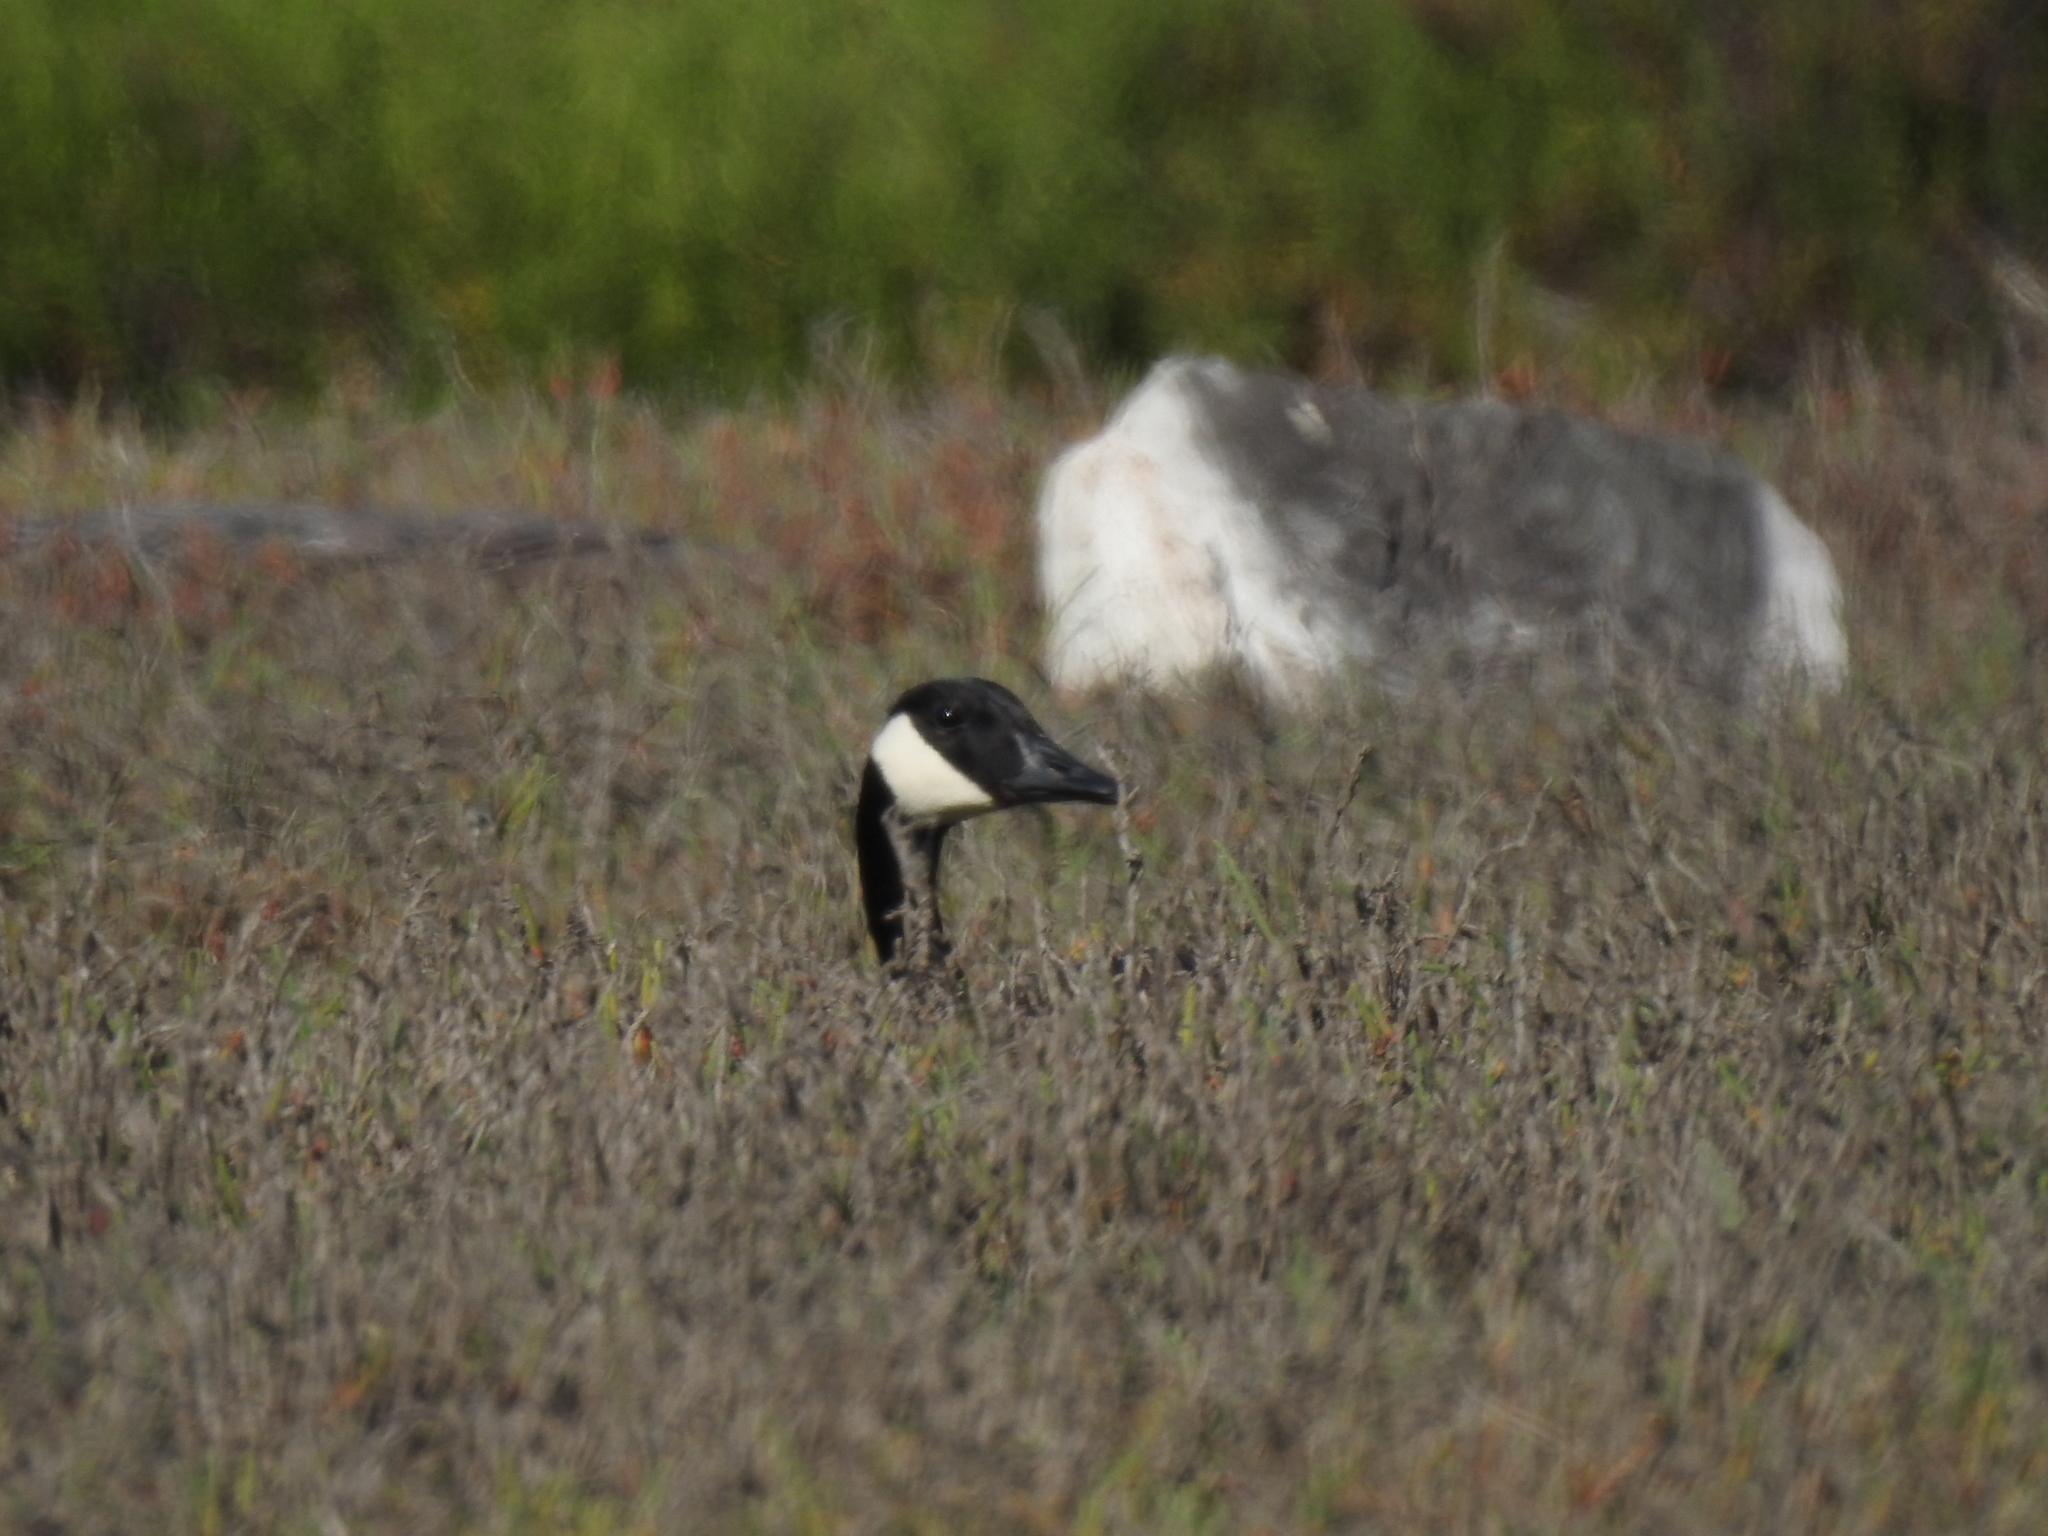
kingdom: Animalia
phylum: Chordata
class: Aves
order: Anseriformes
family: Anatidae
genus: Branta
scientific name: Branta canadensis
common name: Canada goose
